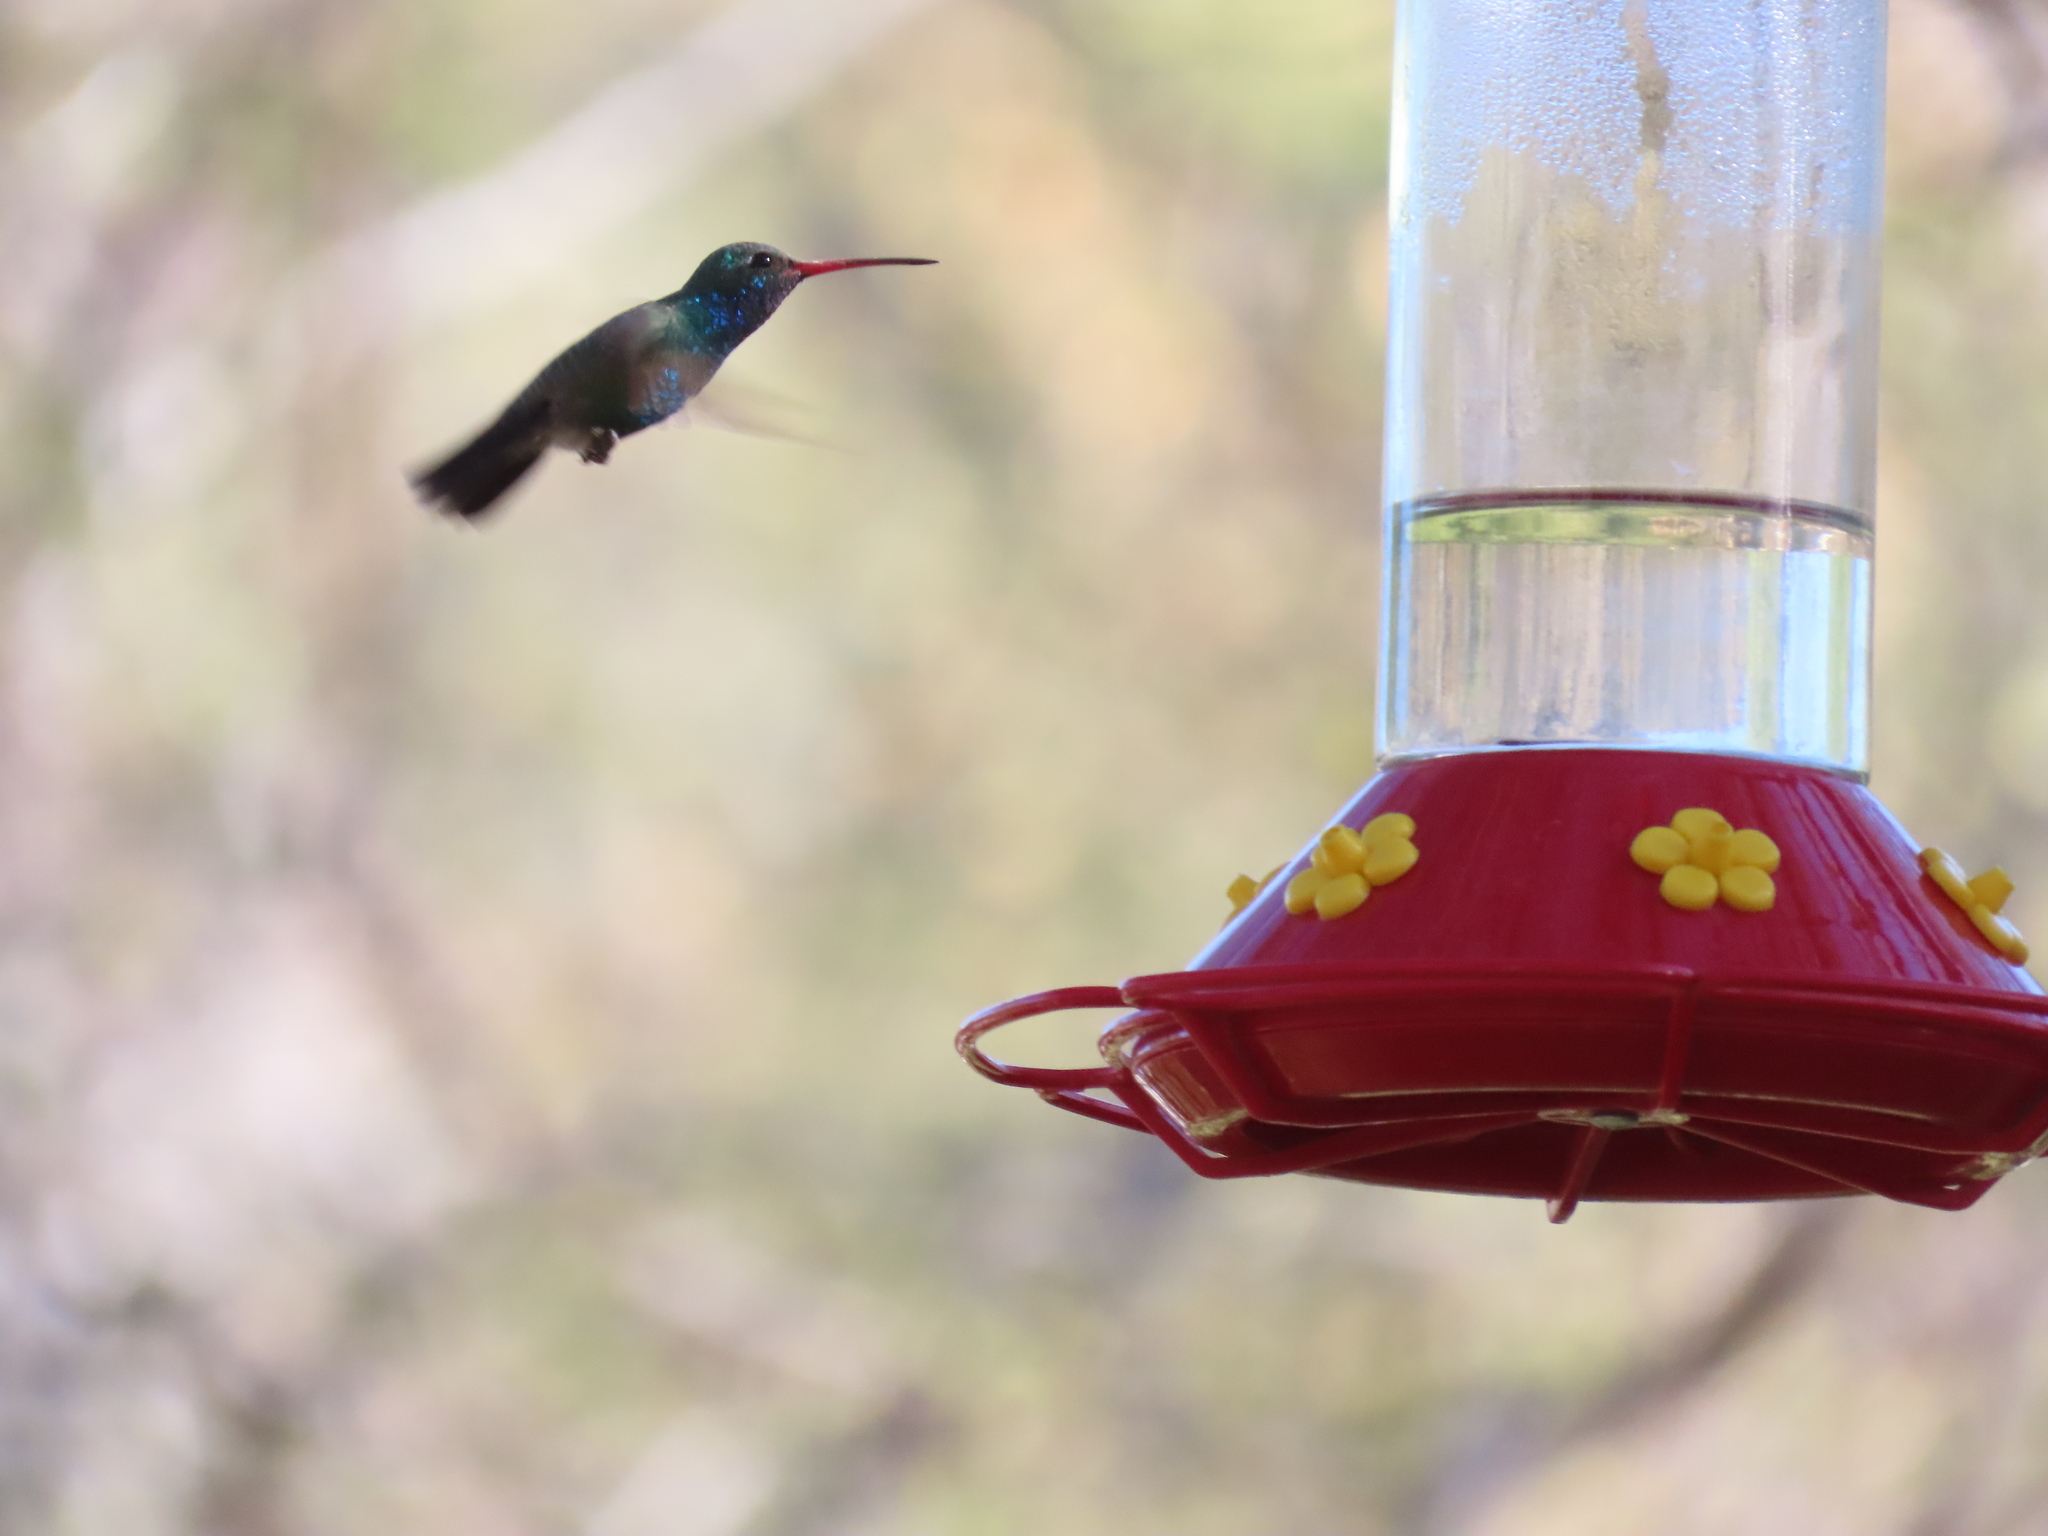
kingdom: Animalia
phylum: Chordata
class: Aves
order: Apodiformes
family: Trochilidae
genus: Cynanthus
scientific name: Cynanthus latirostris
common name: Broad-billed hummingbird
